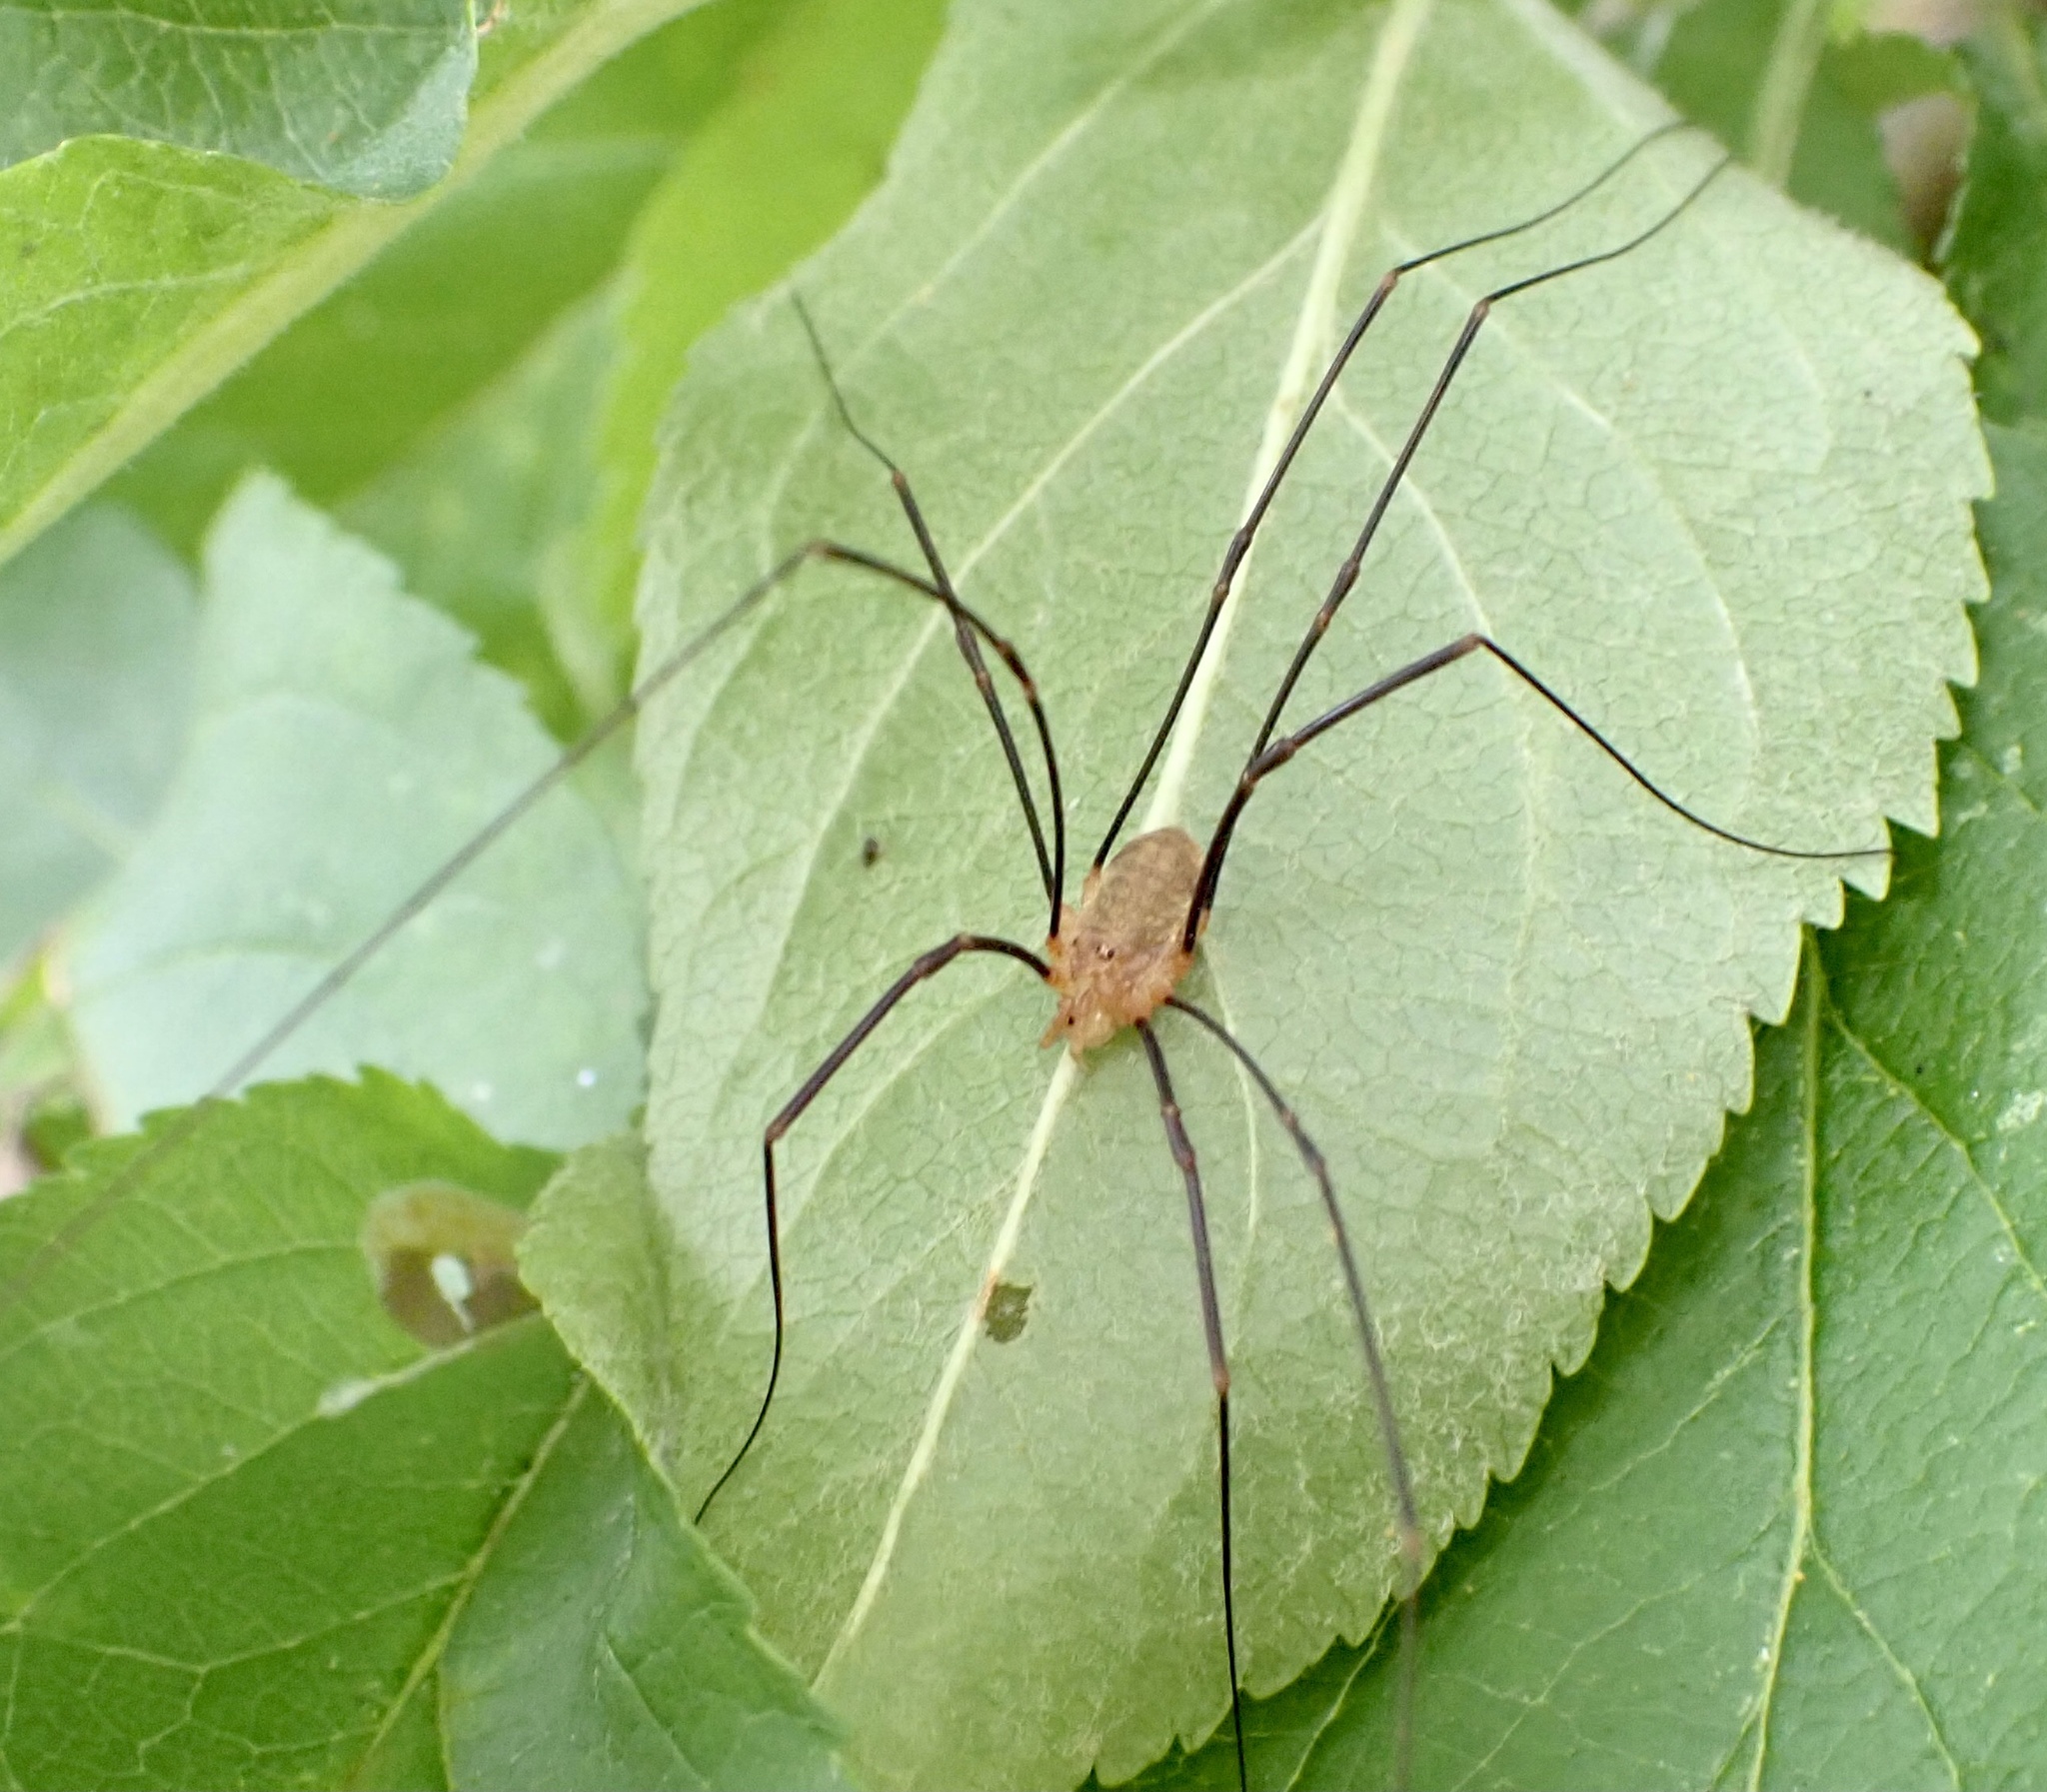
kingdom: Animalia
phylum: Arthropoda
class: Arachnida
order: Opiliones
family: Phalangiidae
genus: Opilio
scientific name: Opilio canestrinii
